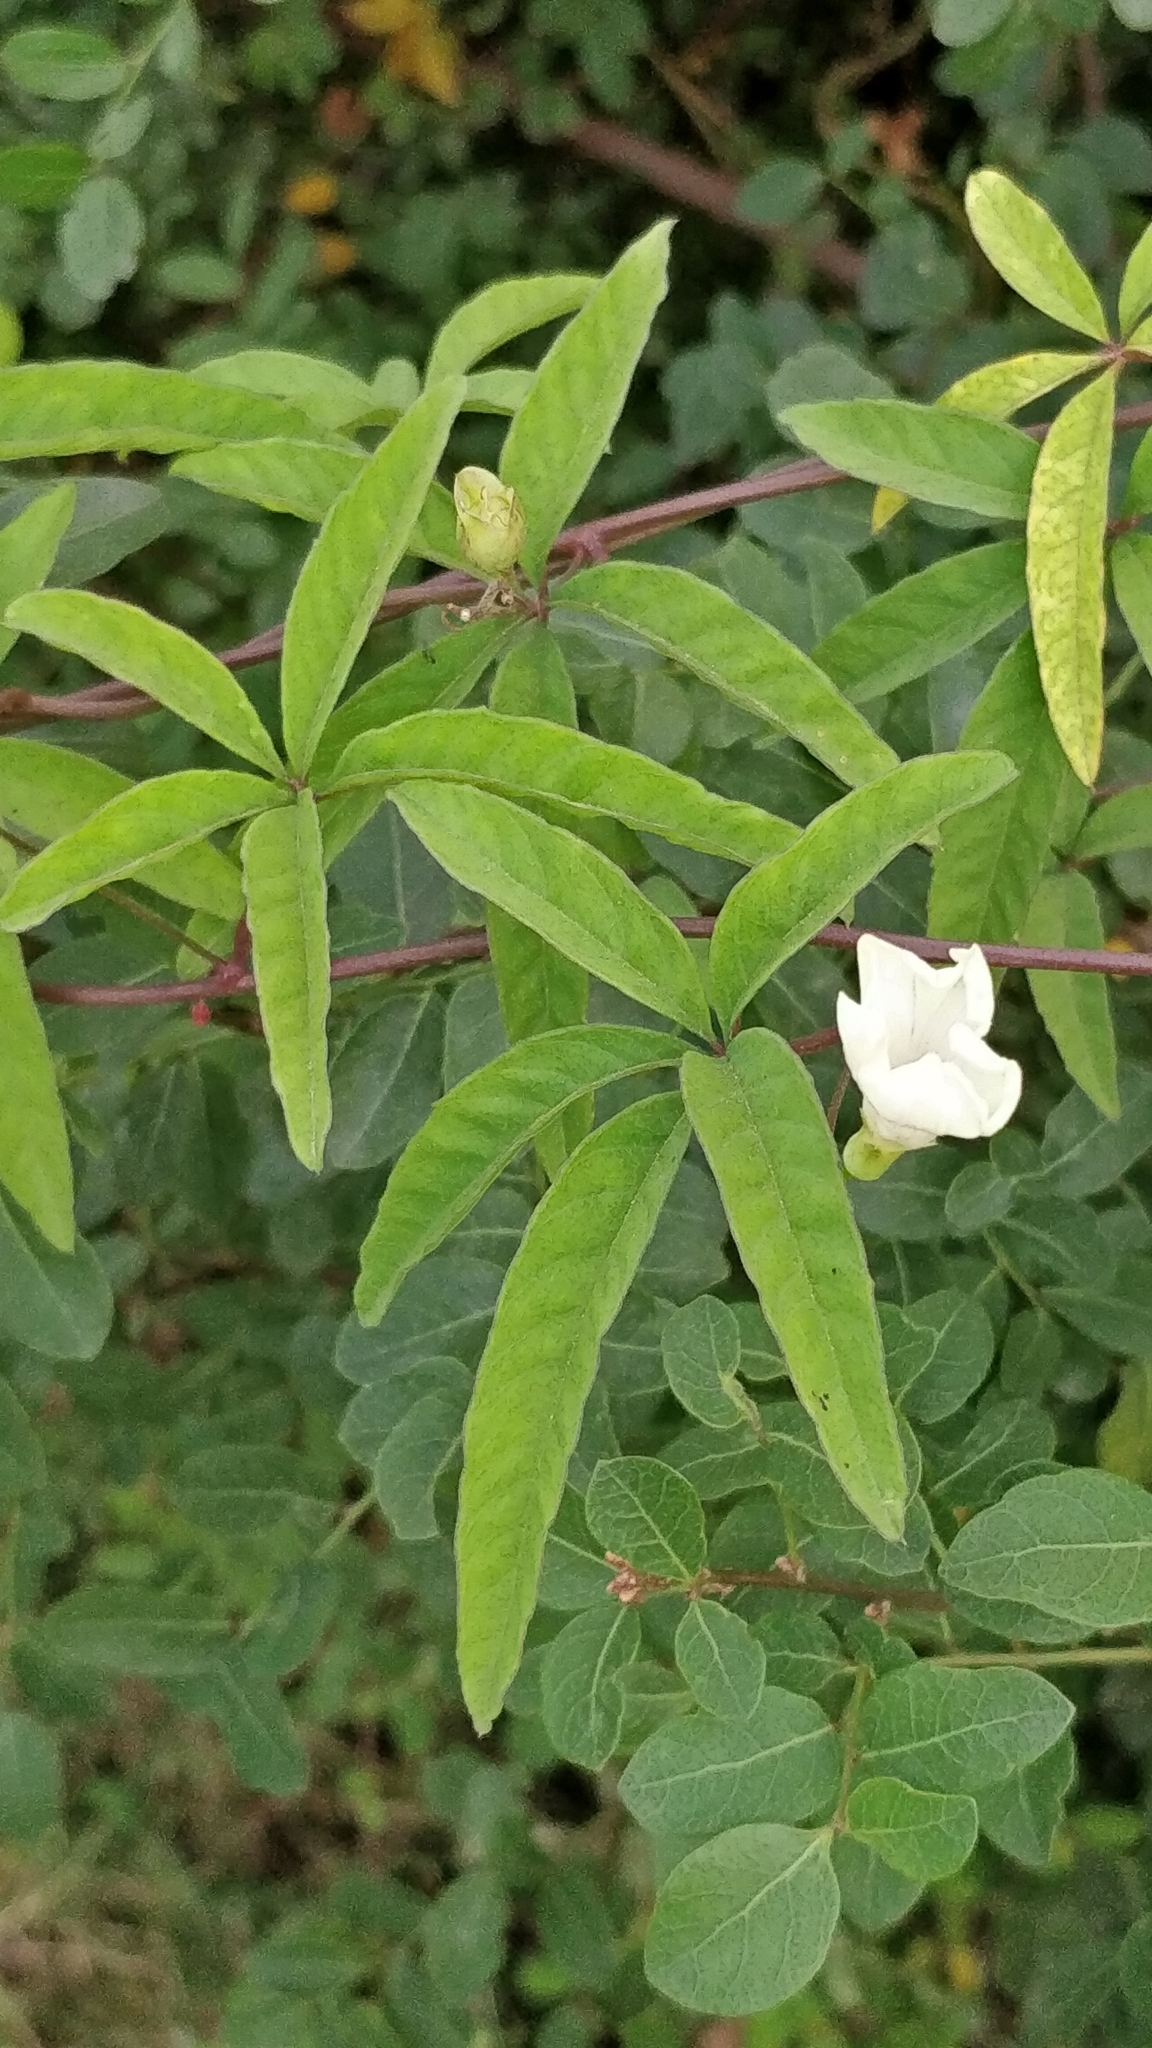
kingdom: Plantae
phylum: Tracheophyta
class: Magnoliopsida
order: Solanales
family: Convolvulaceae
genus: Distimake
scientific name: Distimake quinquefolius
